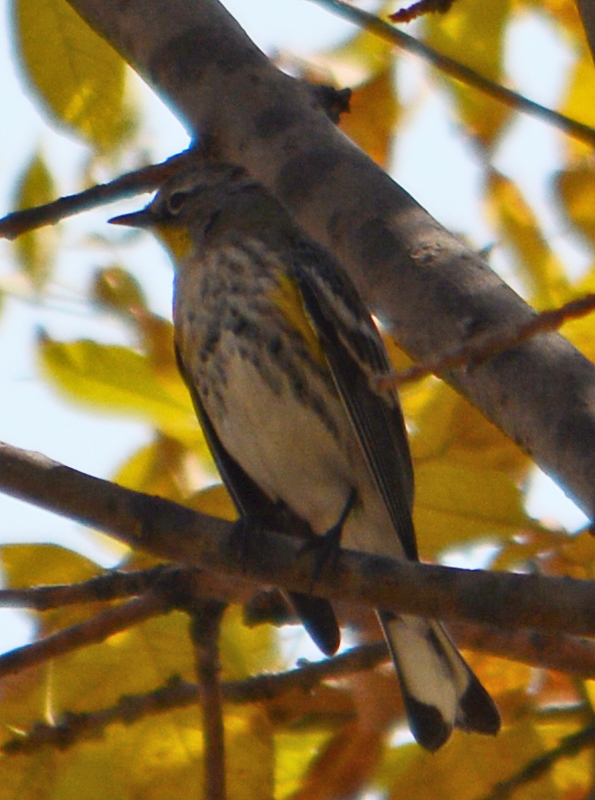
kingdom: Animalia
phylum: Chordata
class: Aves
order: Passeriformes
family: Parulidae
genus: Setophaga
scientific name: Setophaga auduboni
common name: Audubon's warbler
